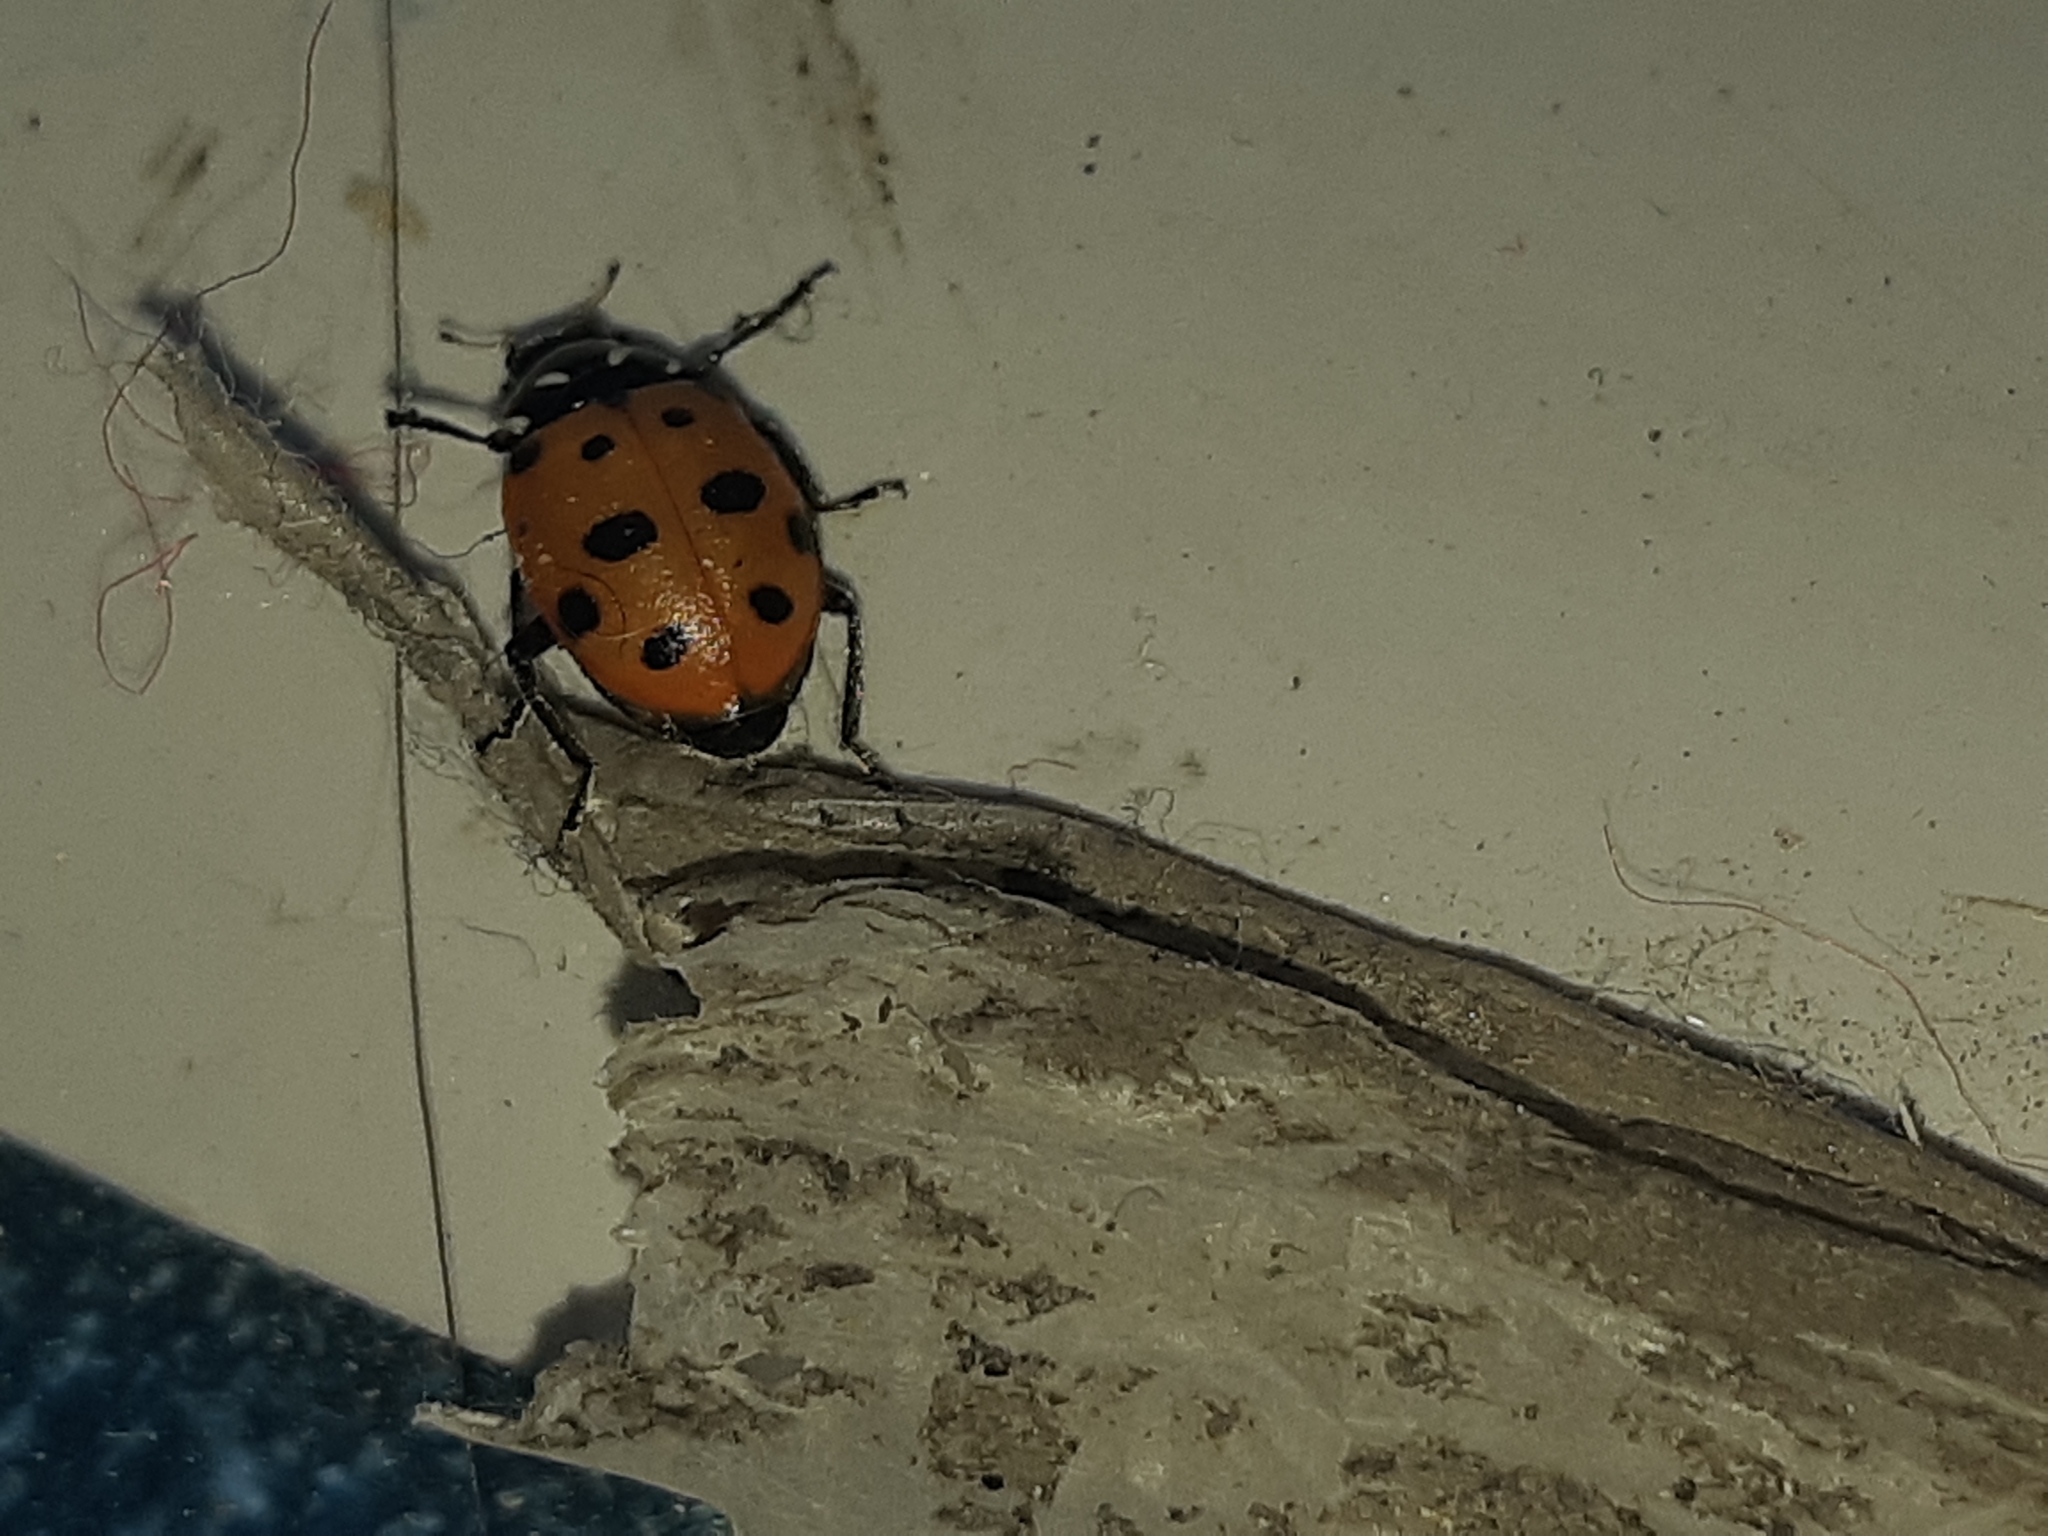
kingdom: Animalia
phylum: Arthropoda
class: Insecta
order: Coleoptera
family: Coccinellidae
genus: Hippodamia
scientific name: Hippodamia convergens
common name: Convergent lady beetle
